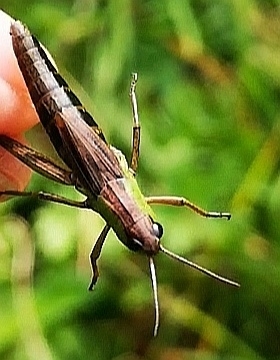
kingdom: Animalia
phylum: Arthropoda
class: Insecta
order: Orthoptera
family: Acrididae
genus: Pseudochorthippus
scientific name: Pseudochorthippus parallelus
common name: Meadow grasshopper
